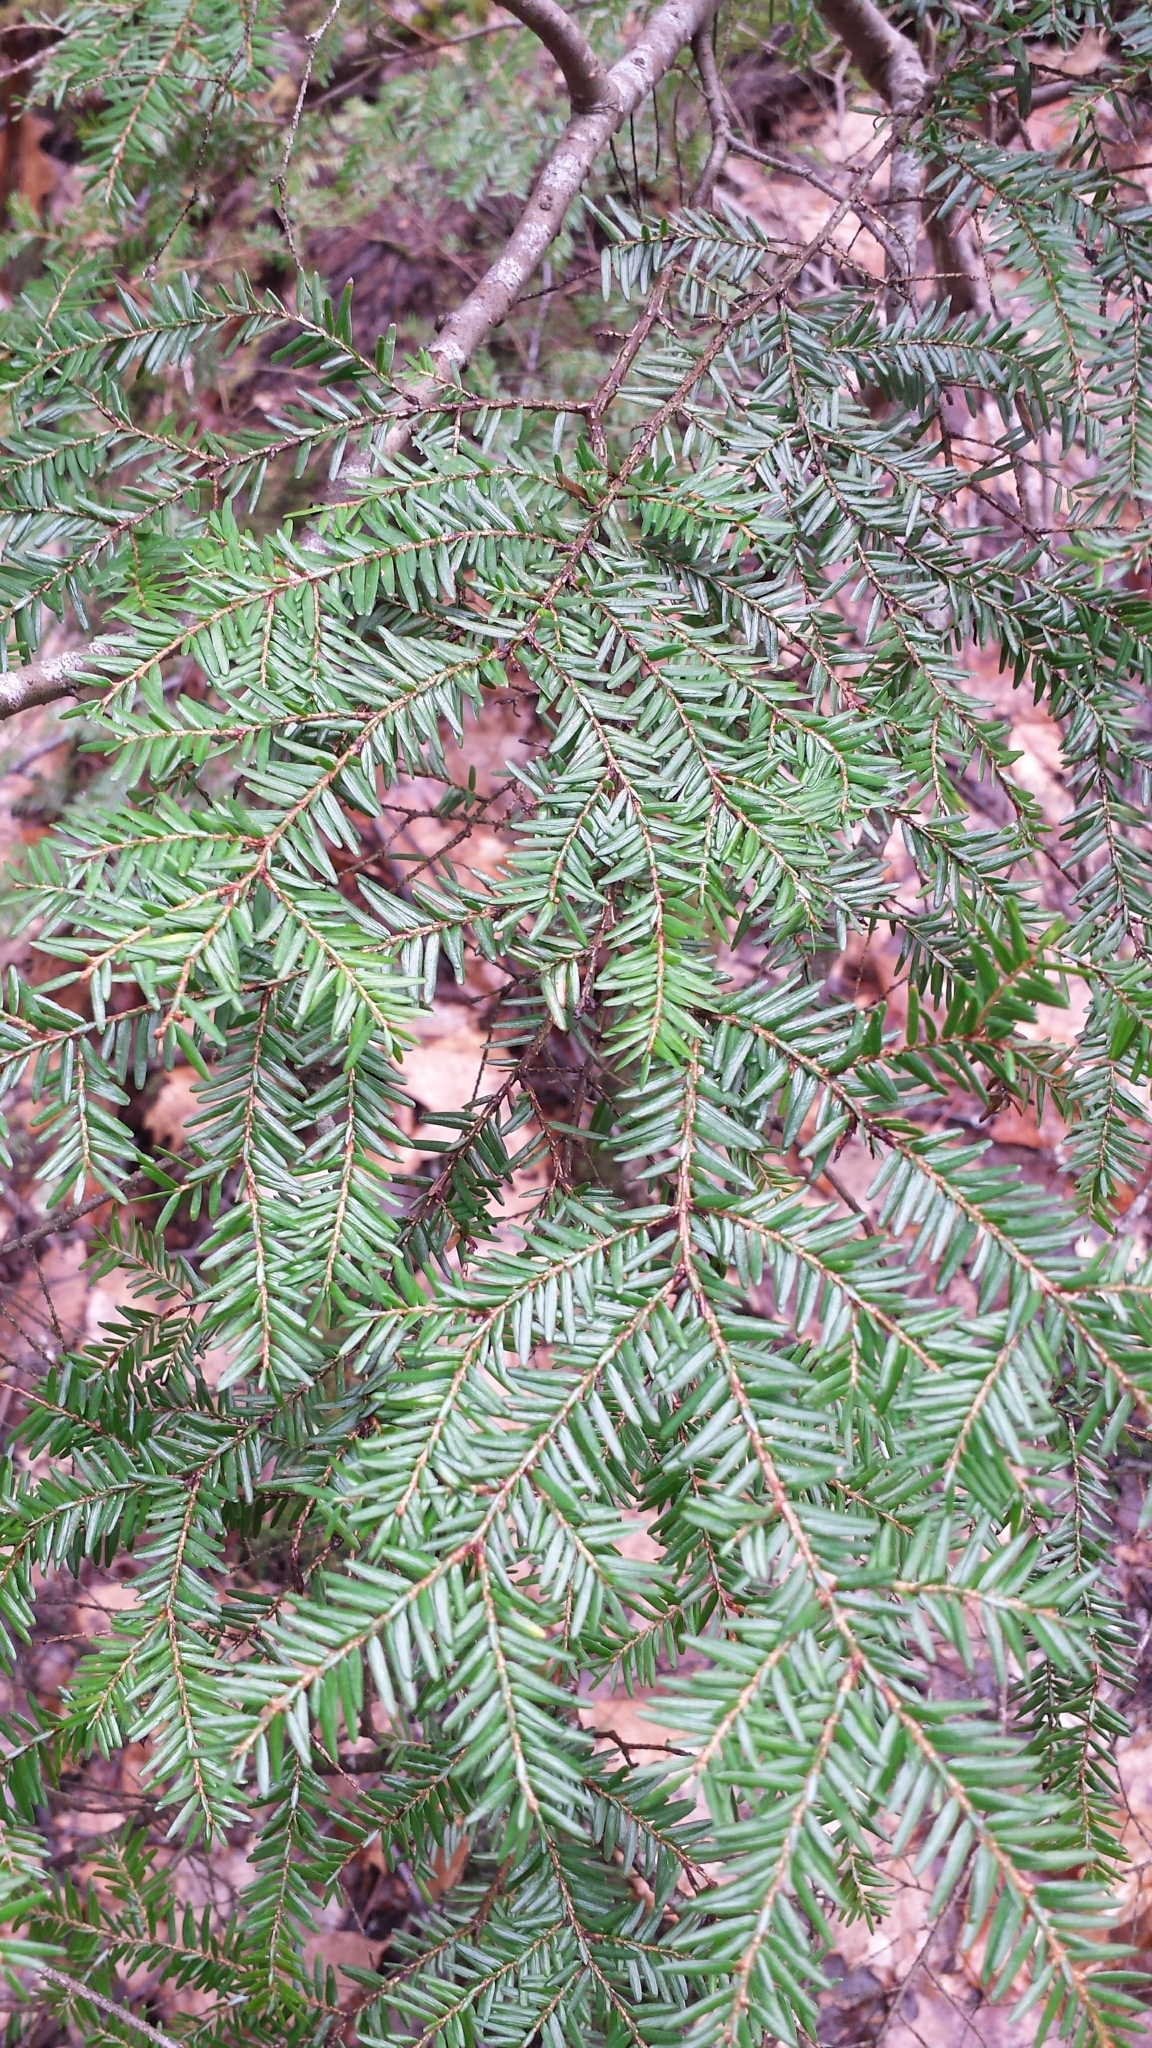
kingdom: Plantae
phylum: Tracheophyta
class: Pinopsida
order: Pinales
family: Pinaceae
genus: Tsuga
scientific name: Tsuga canadensis
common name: Eastern hemlock
